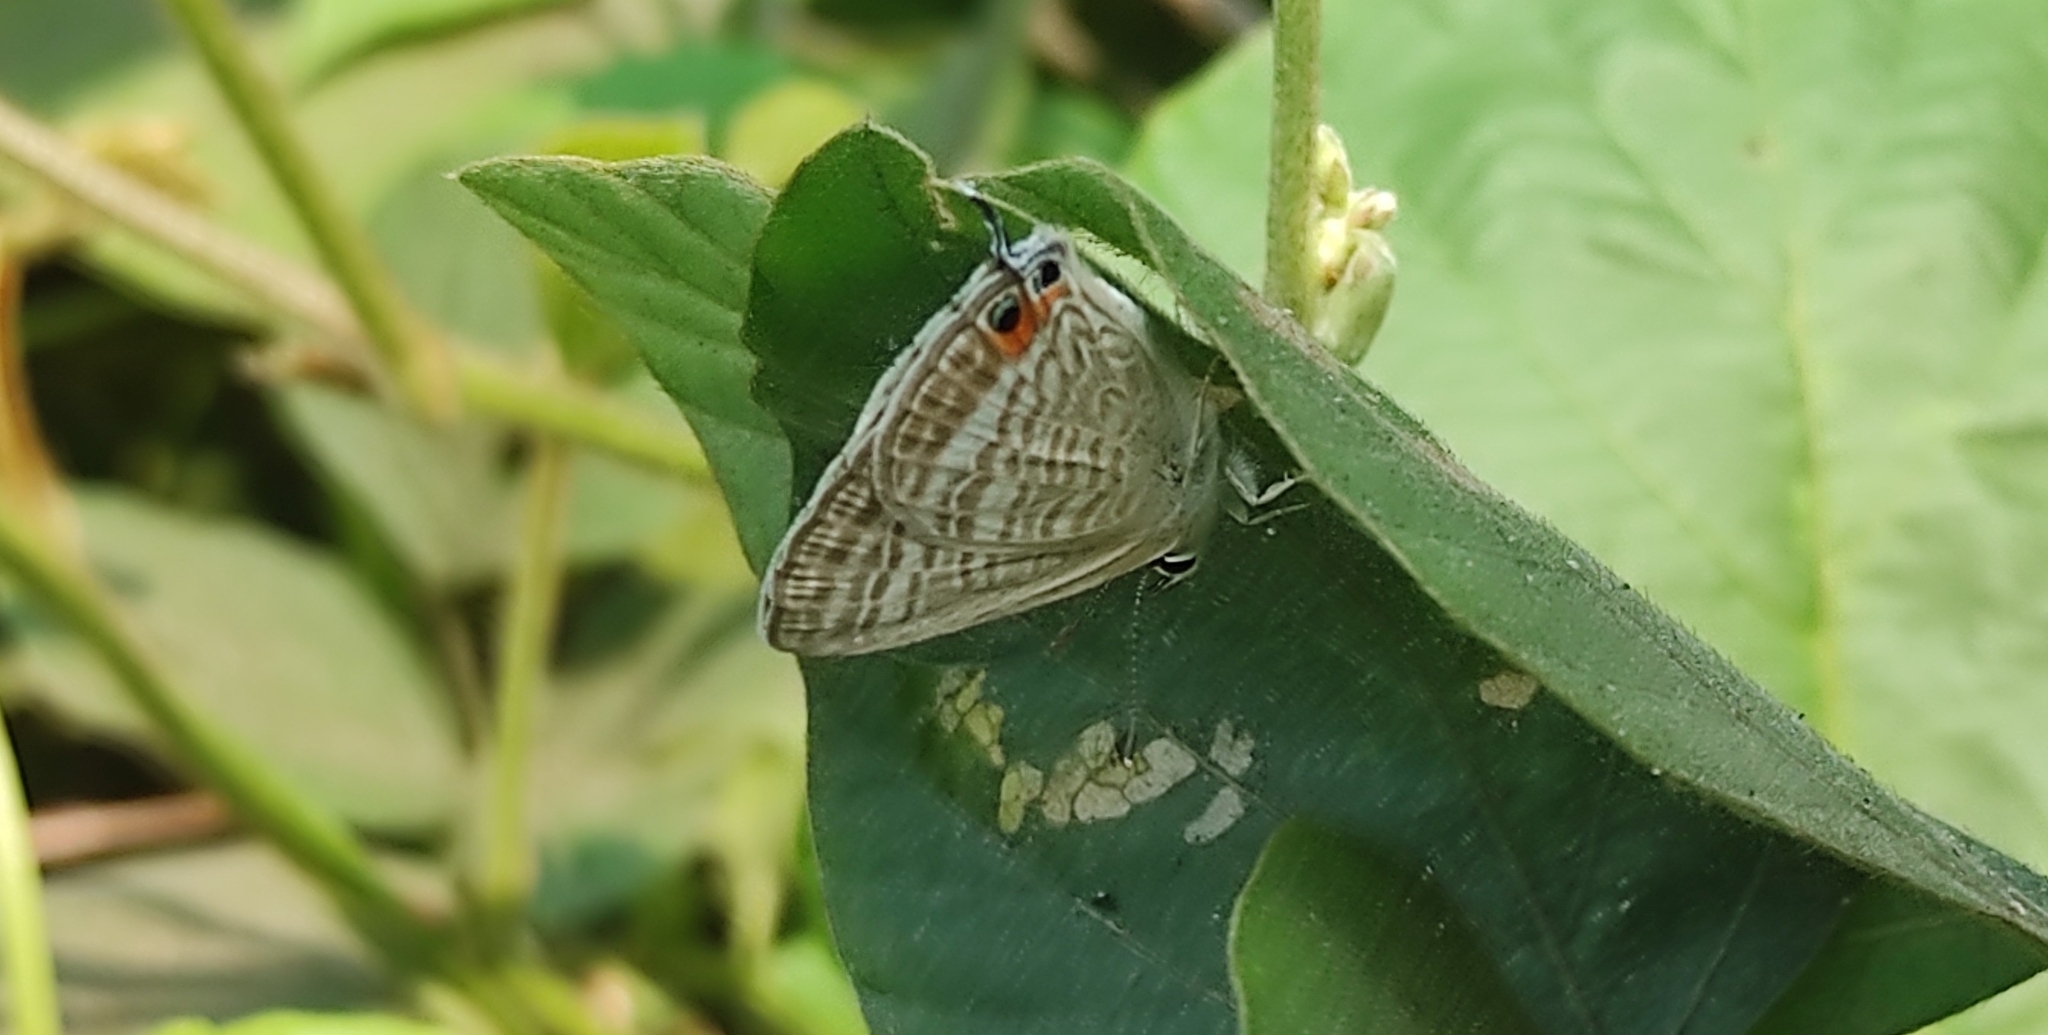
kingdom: Animalia
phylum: Arthropoda
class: Insecta
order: Lepidoptera
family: Lycaenidae
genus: Lampides
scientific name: Lampides boeticus
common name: Long-tailed blue
